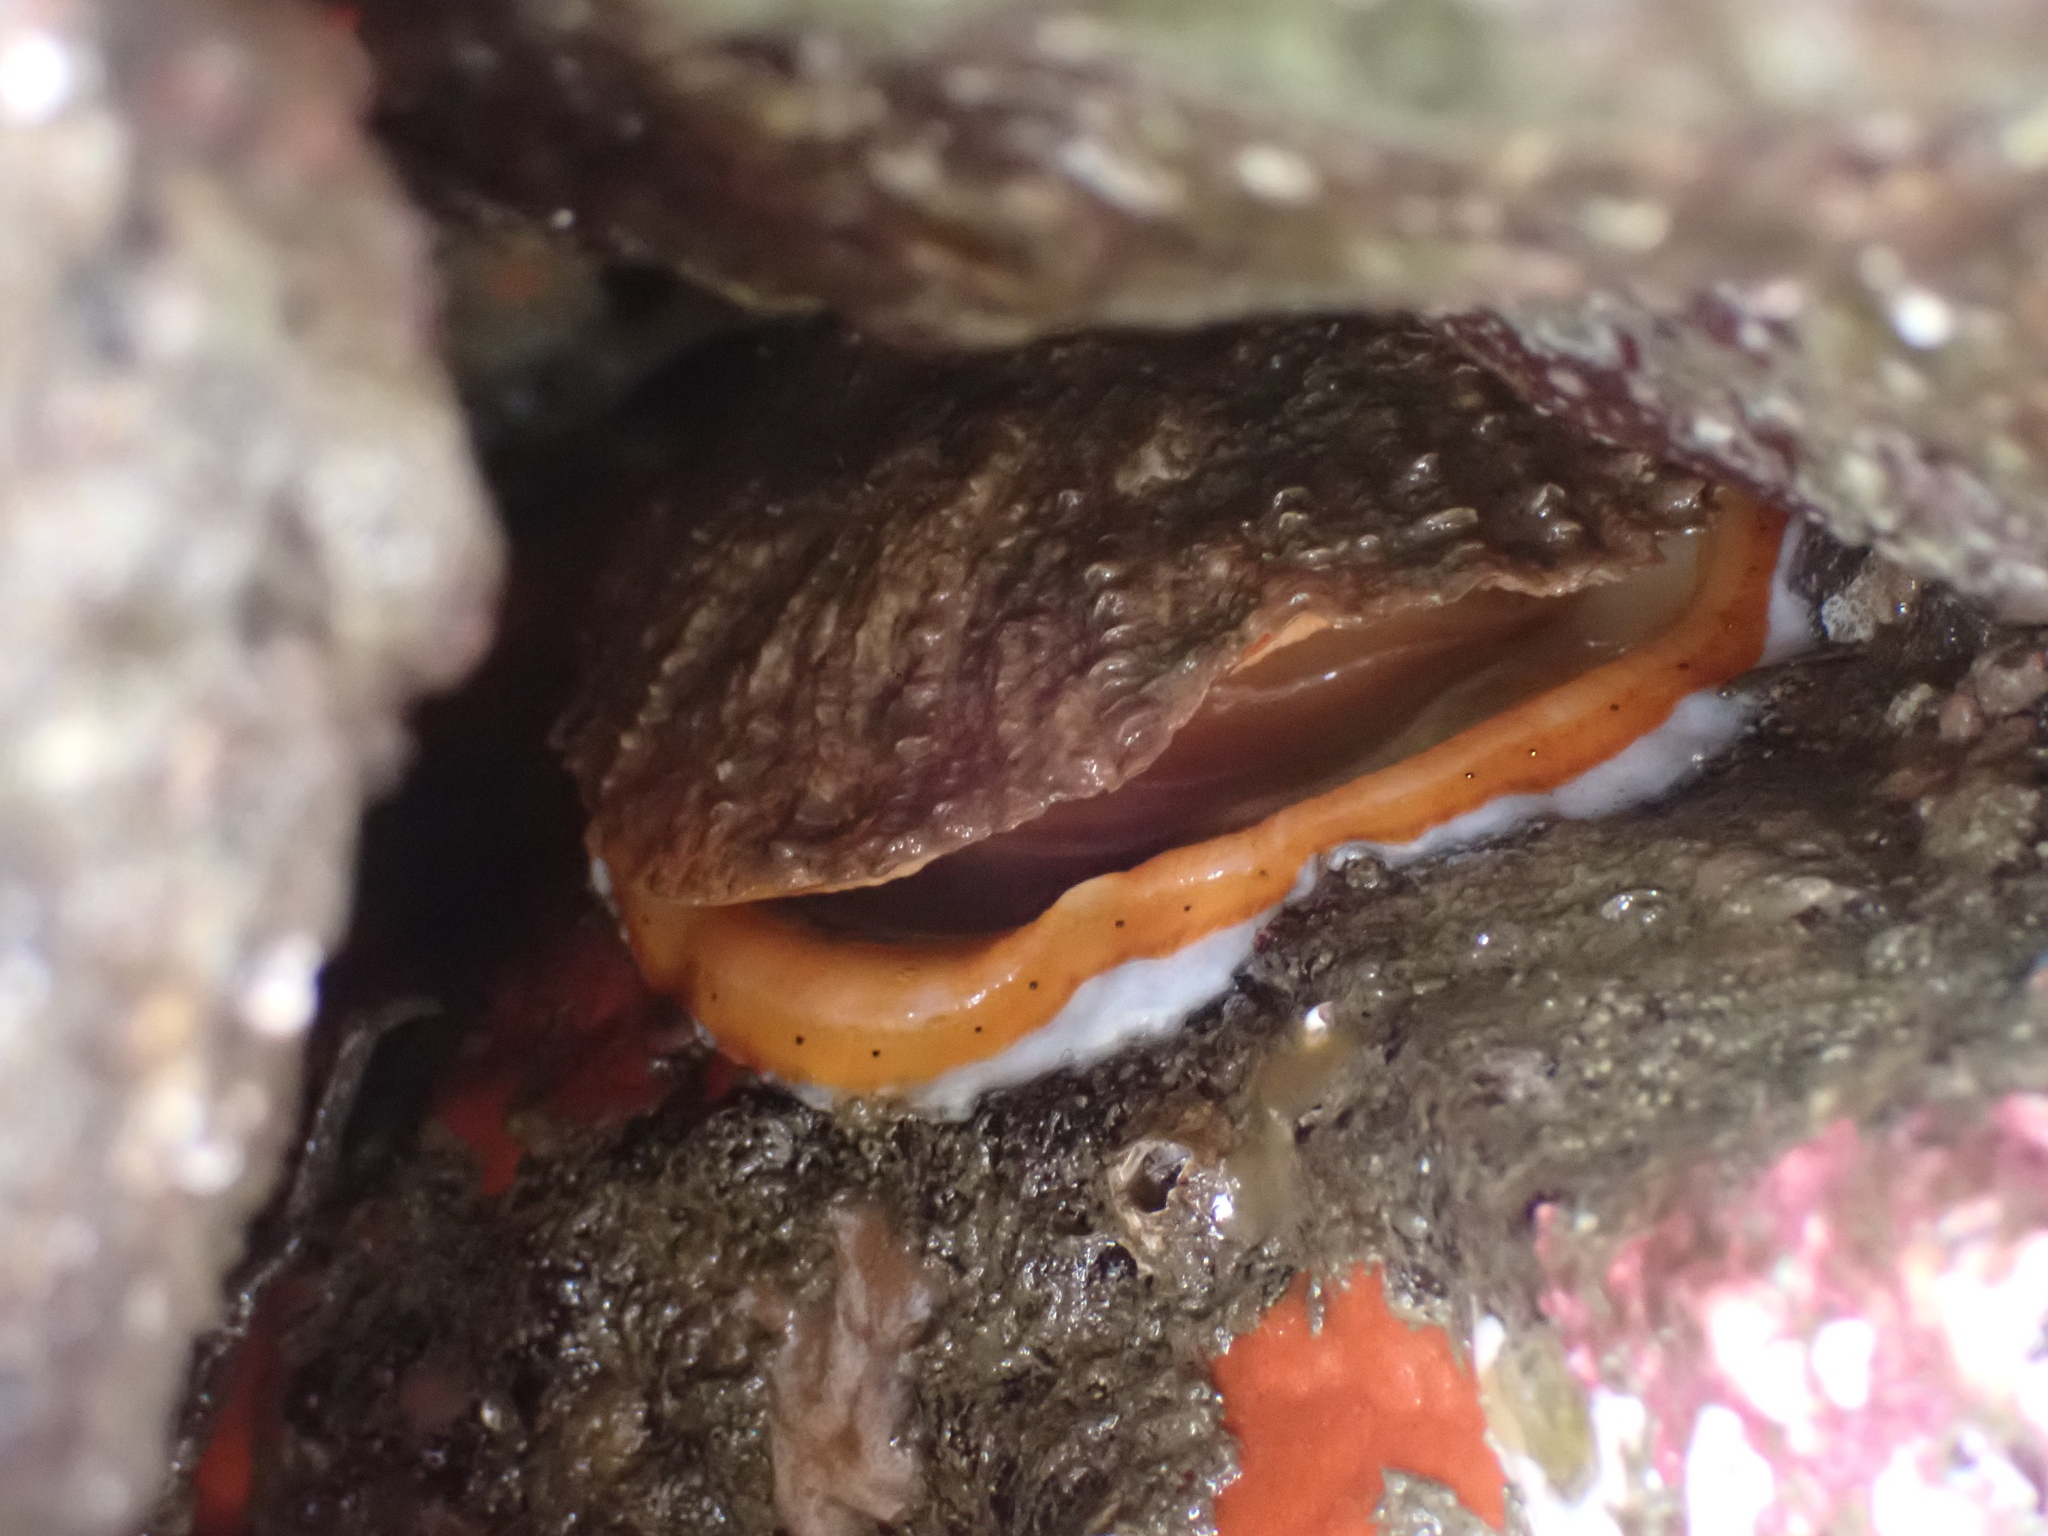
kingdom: Animalia
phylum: Mollusca
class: Bivalvia
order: Pectinida
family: Pectinidae
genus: Crassadoma
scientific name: Crassadoma gigantea
